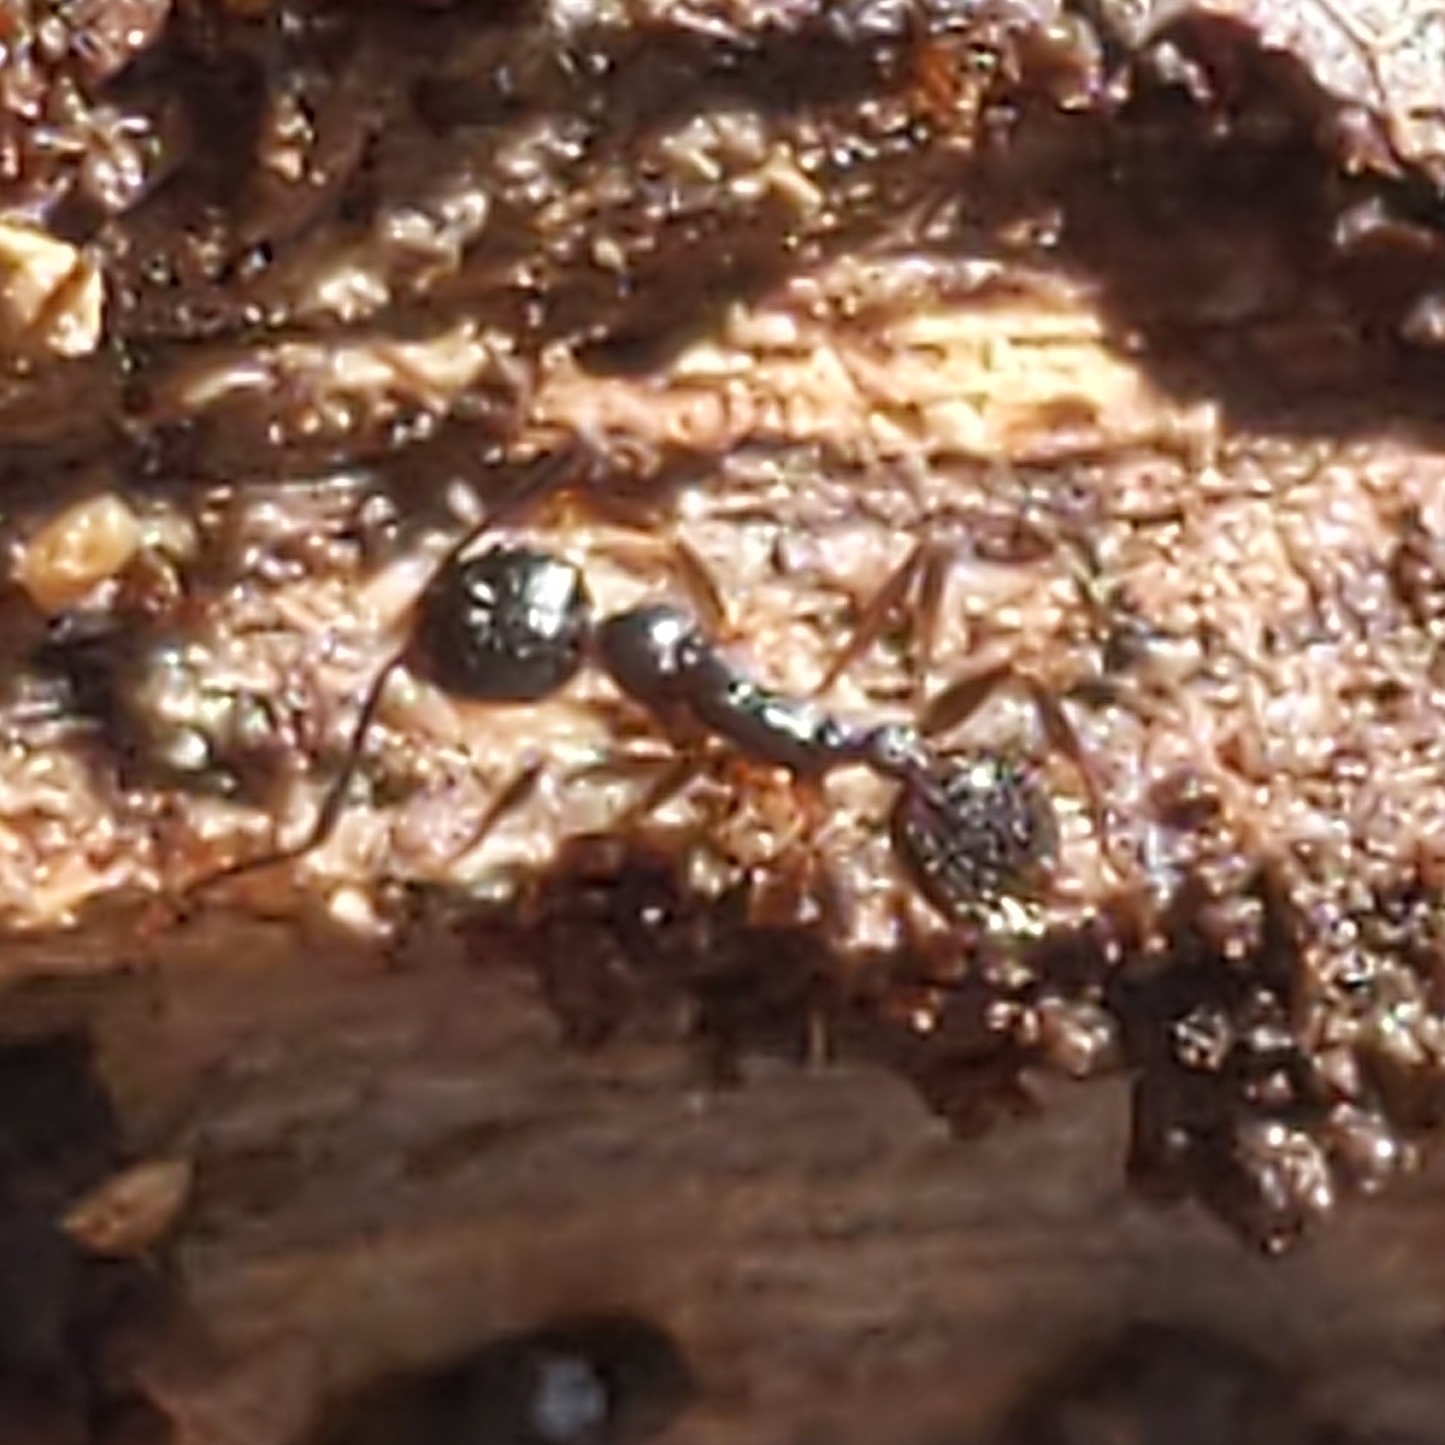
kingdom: Animalia
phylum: Arthropoda
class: Insecta
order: Hymenoptera
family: Formicidae
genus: Aphaenogaster
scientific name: Aphaenogaster
